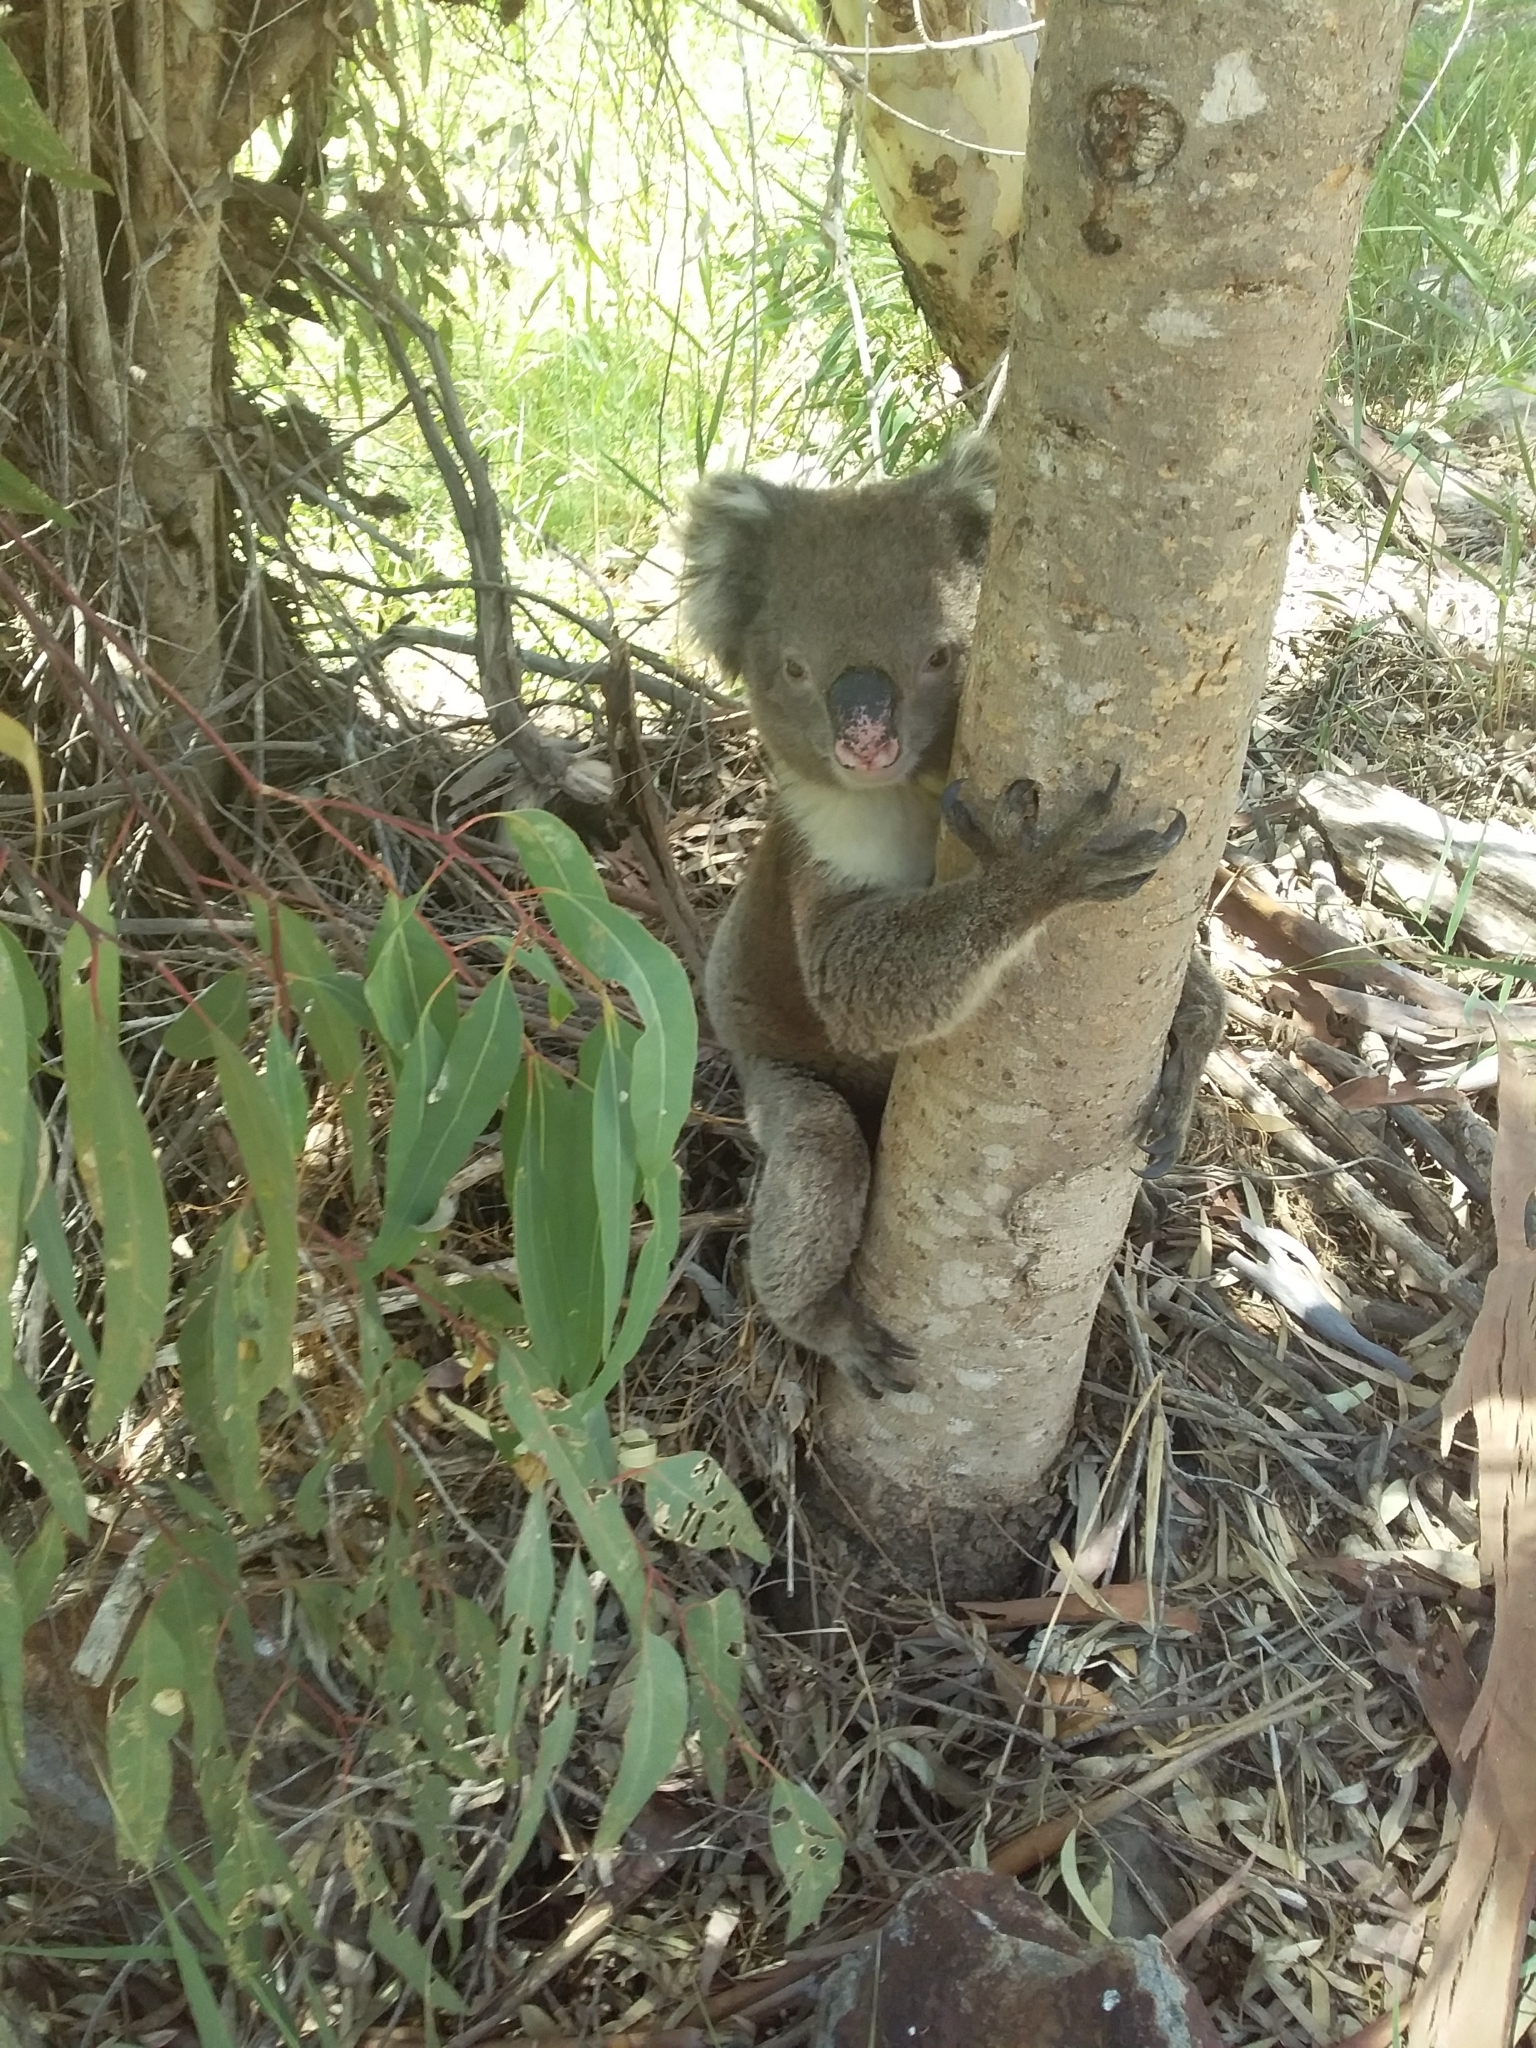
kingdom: Animalia
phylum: Chordata
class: Mammalia
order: Diprotodontia
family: Phascolarctidae
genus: Phascolarctos
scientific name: Phascolarctos cinereus
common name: Koala
